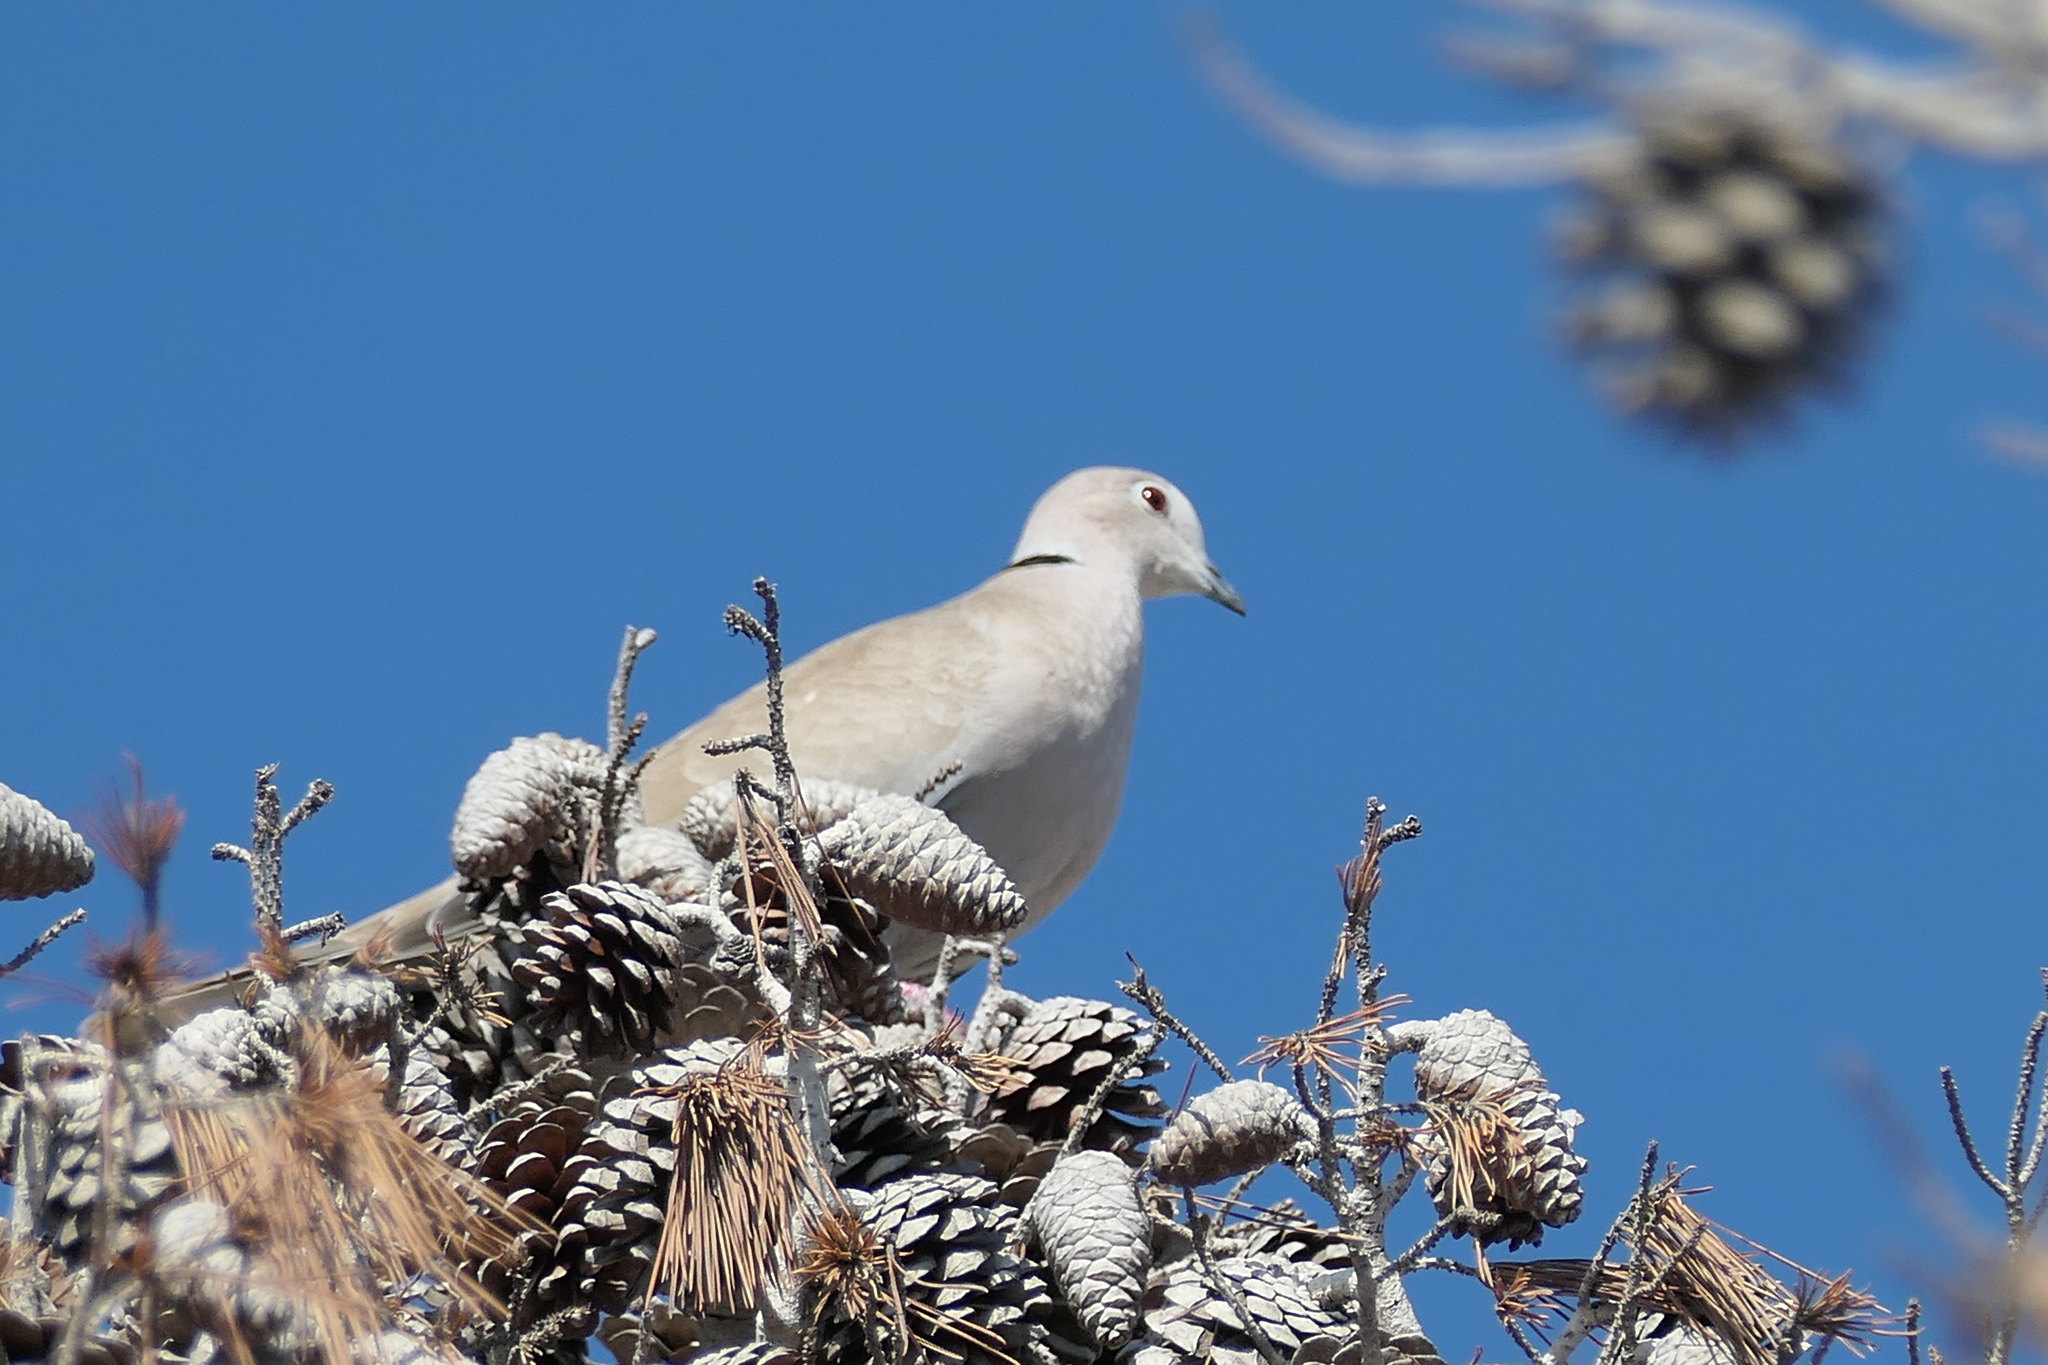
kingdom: Animalia
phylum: Chordata
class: Aves
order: Columbiformes
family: Columbidae
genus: Streptopelia
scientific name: Streptopelia decaocto
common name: Eurasian collared dove
